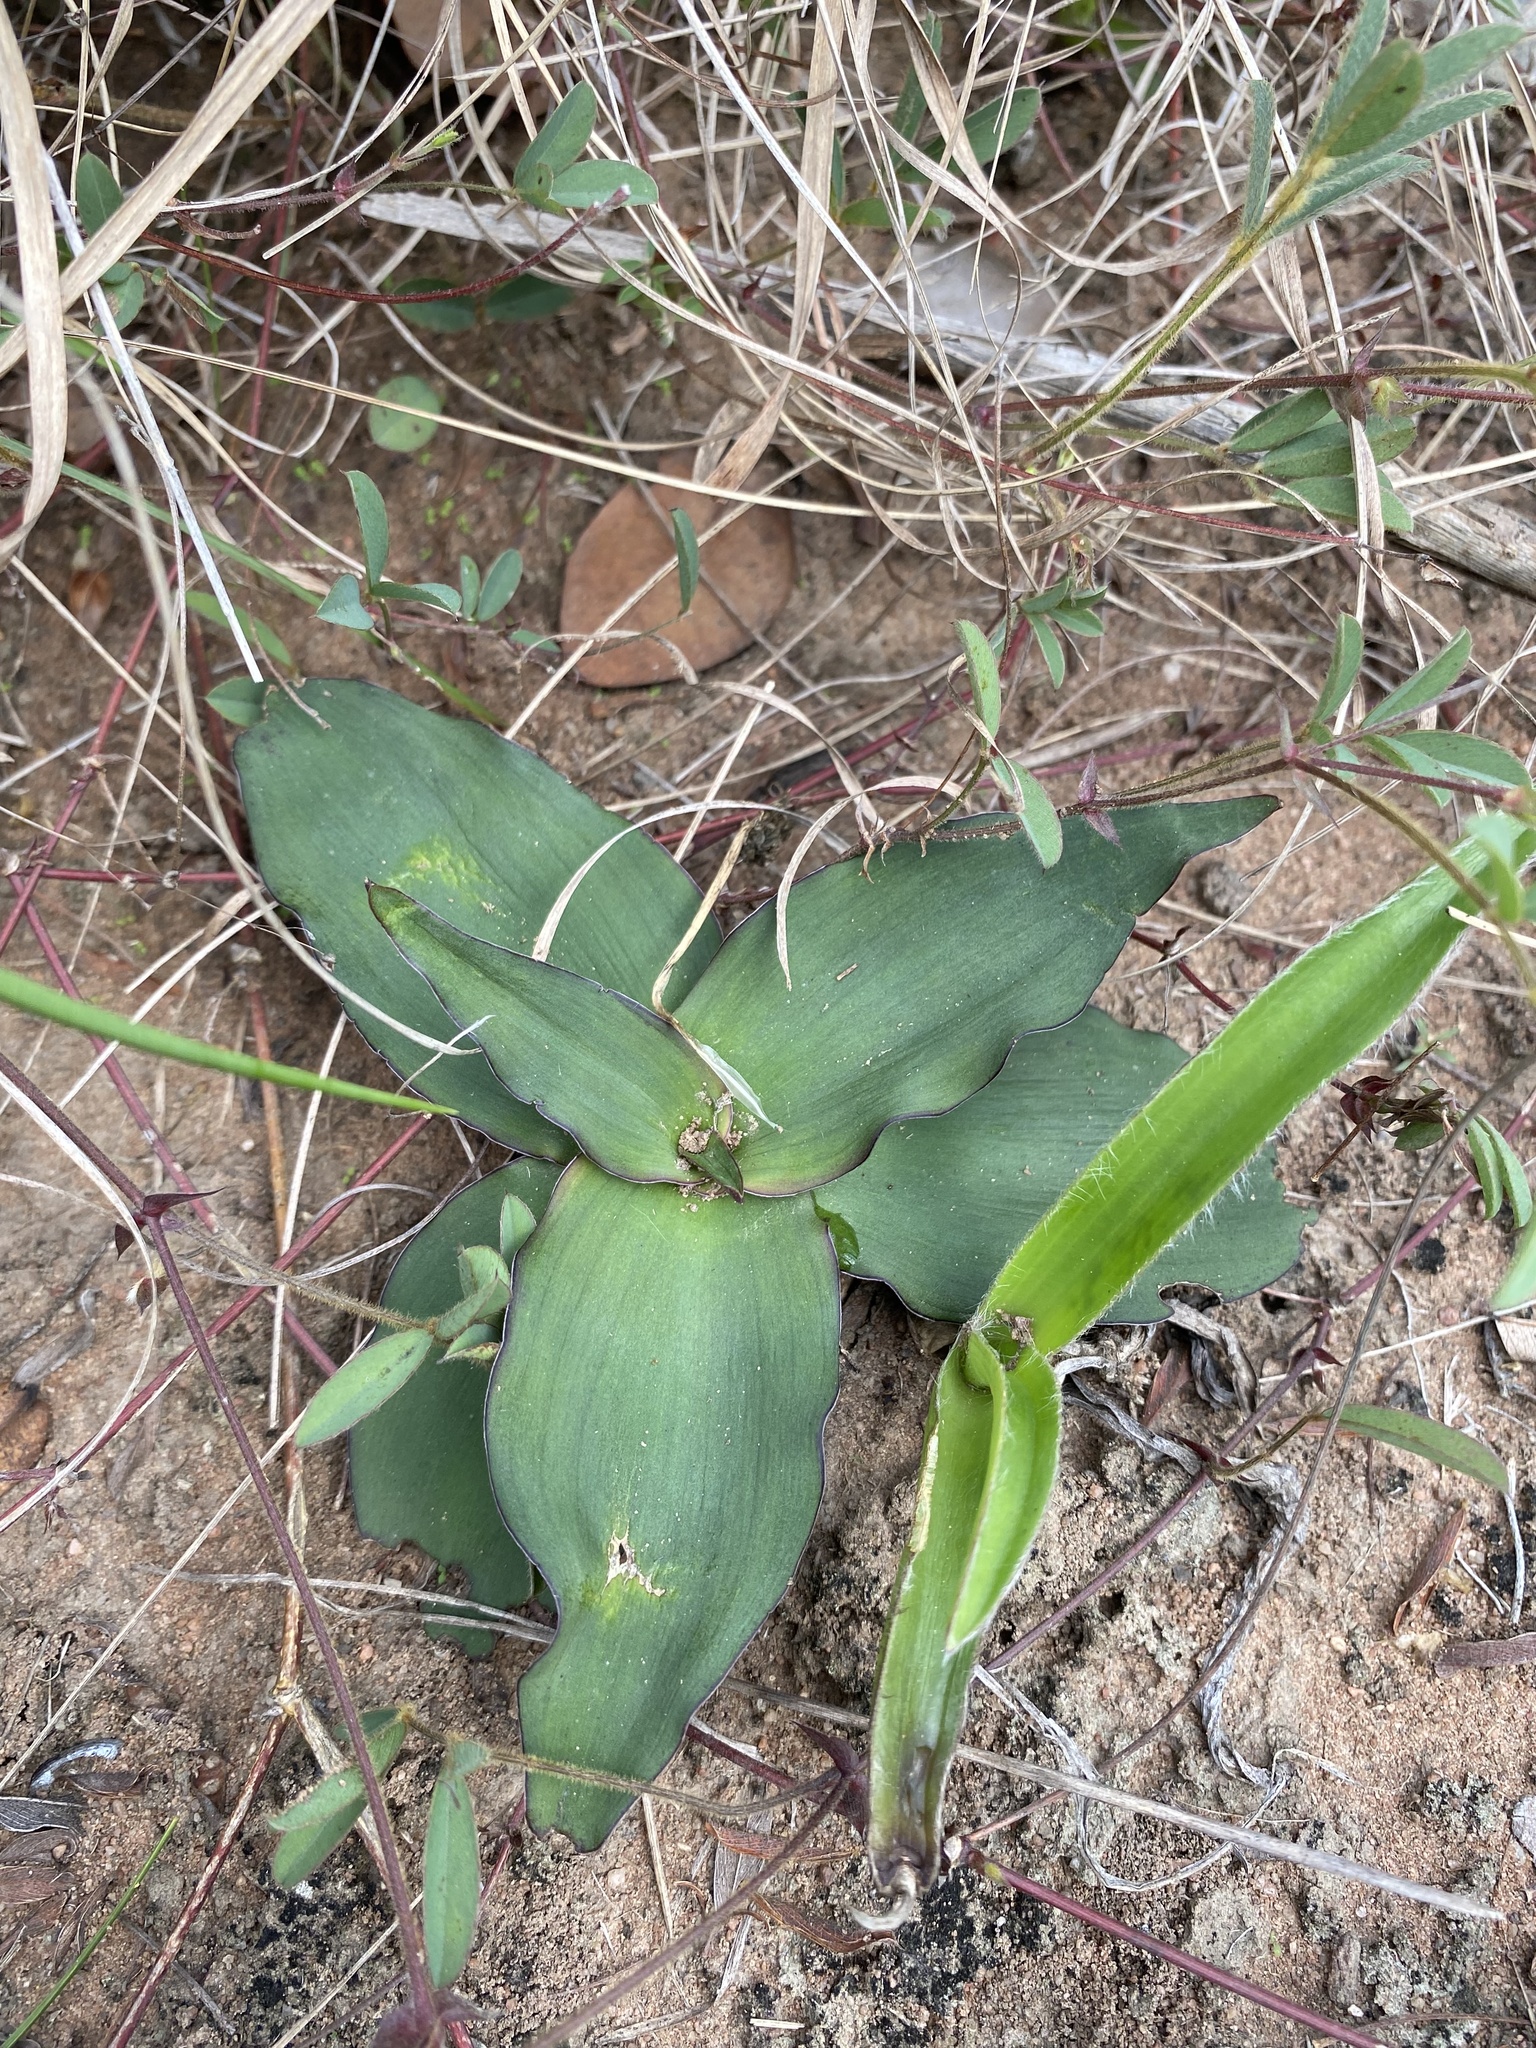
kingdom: Plantae
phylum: Tracheophyta
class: Liliopsida
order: Asparagales
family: Asparagaceae
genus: Ledebouria
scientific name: Ledebouria ovatifolia
